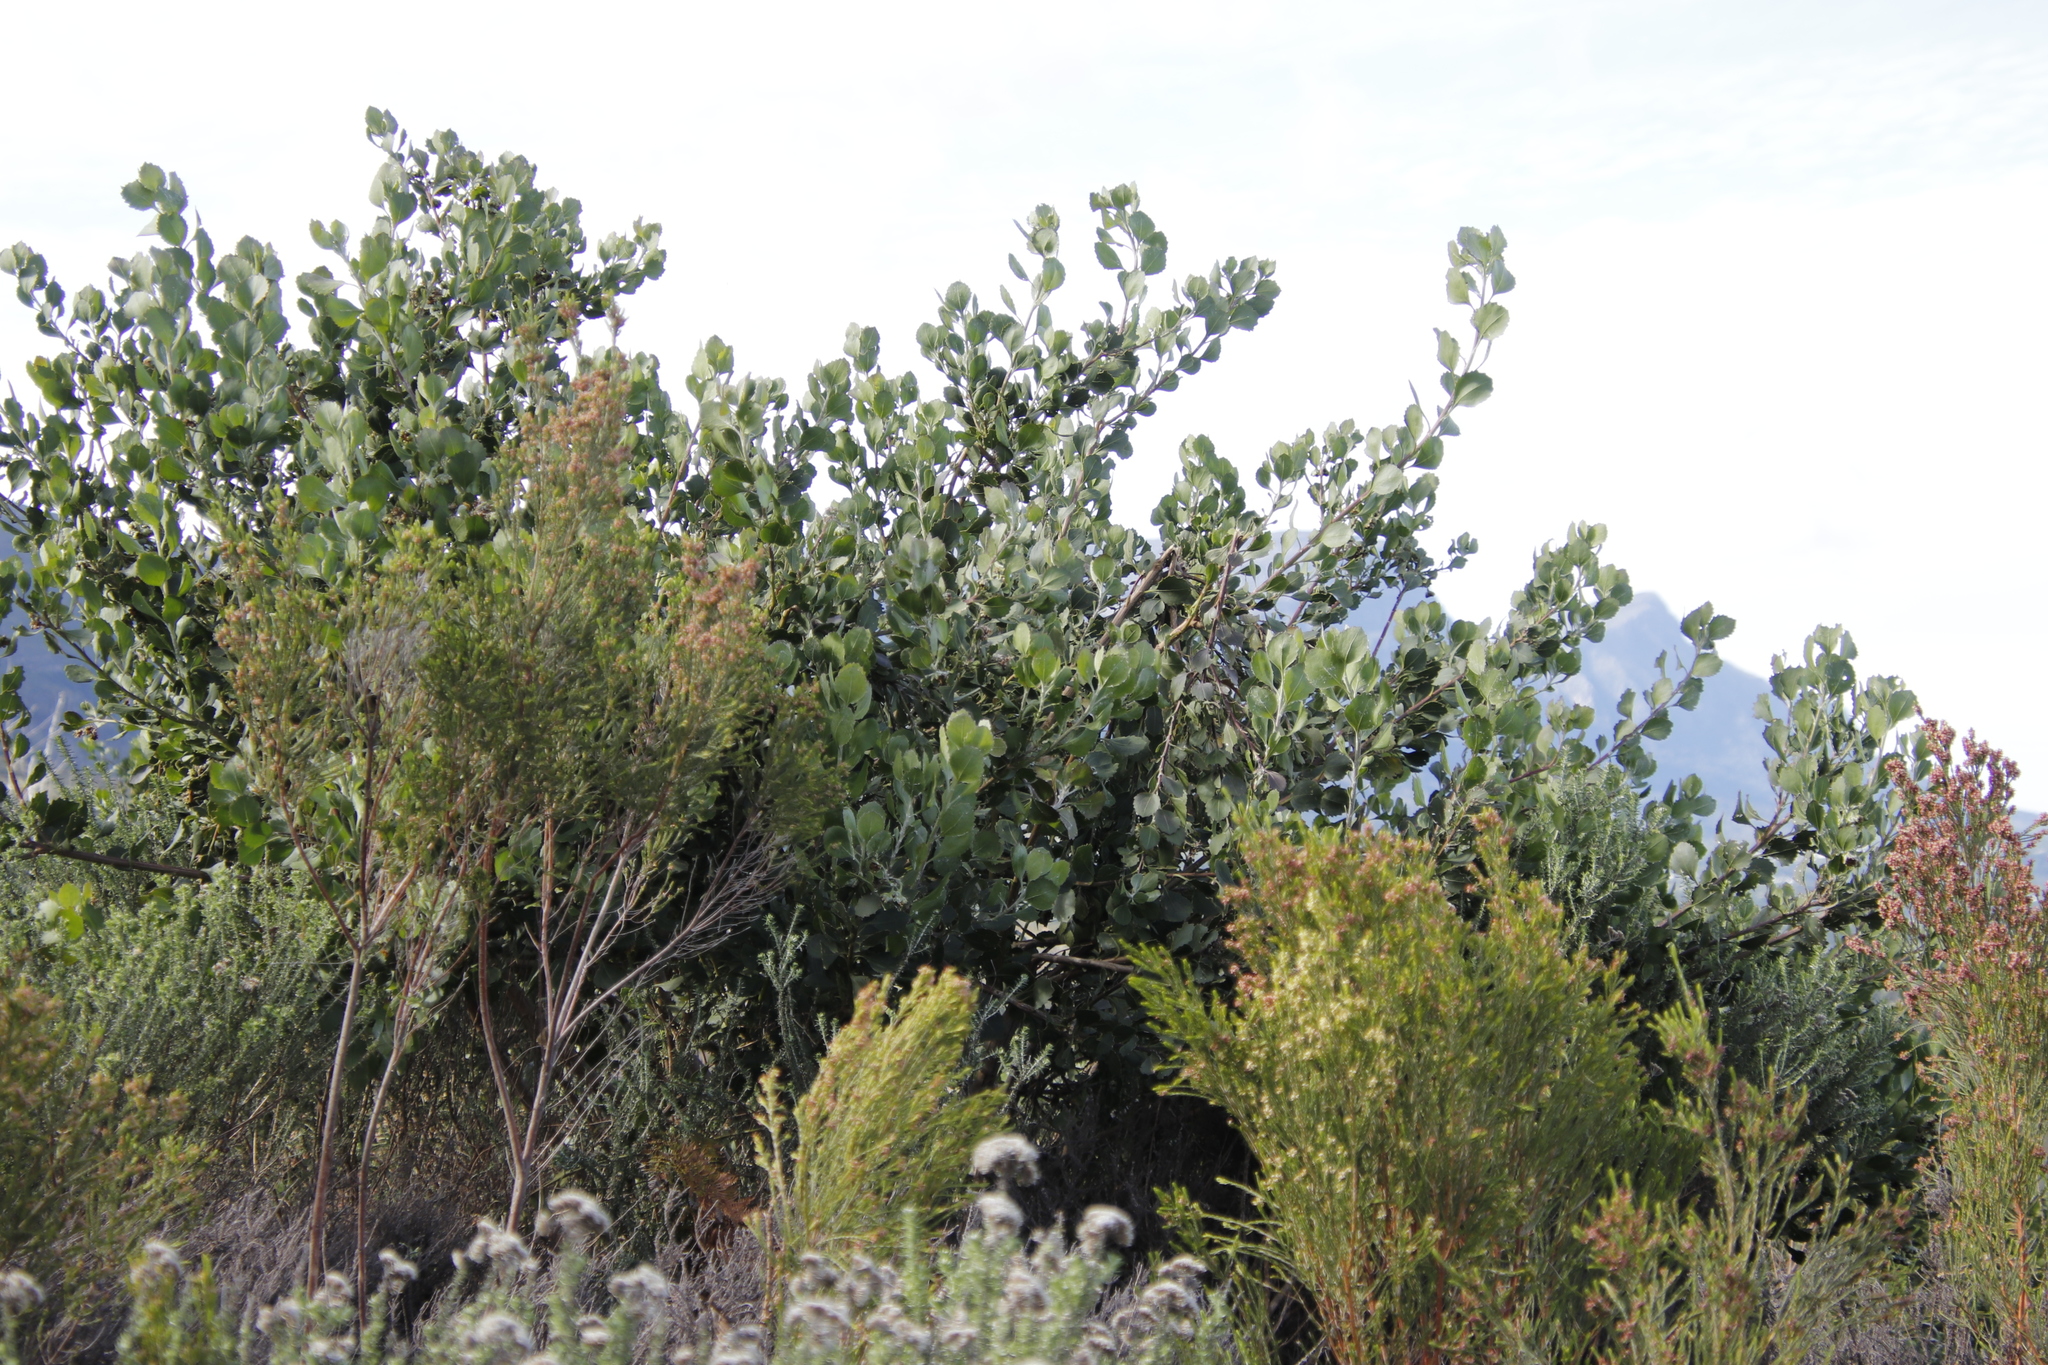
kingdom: Plantae
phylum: Tracheophyta
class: Magnoliopsida
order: Asterales
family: Asteraceae
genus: Osteospermum
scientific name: Osteospermum moniliferum
